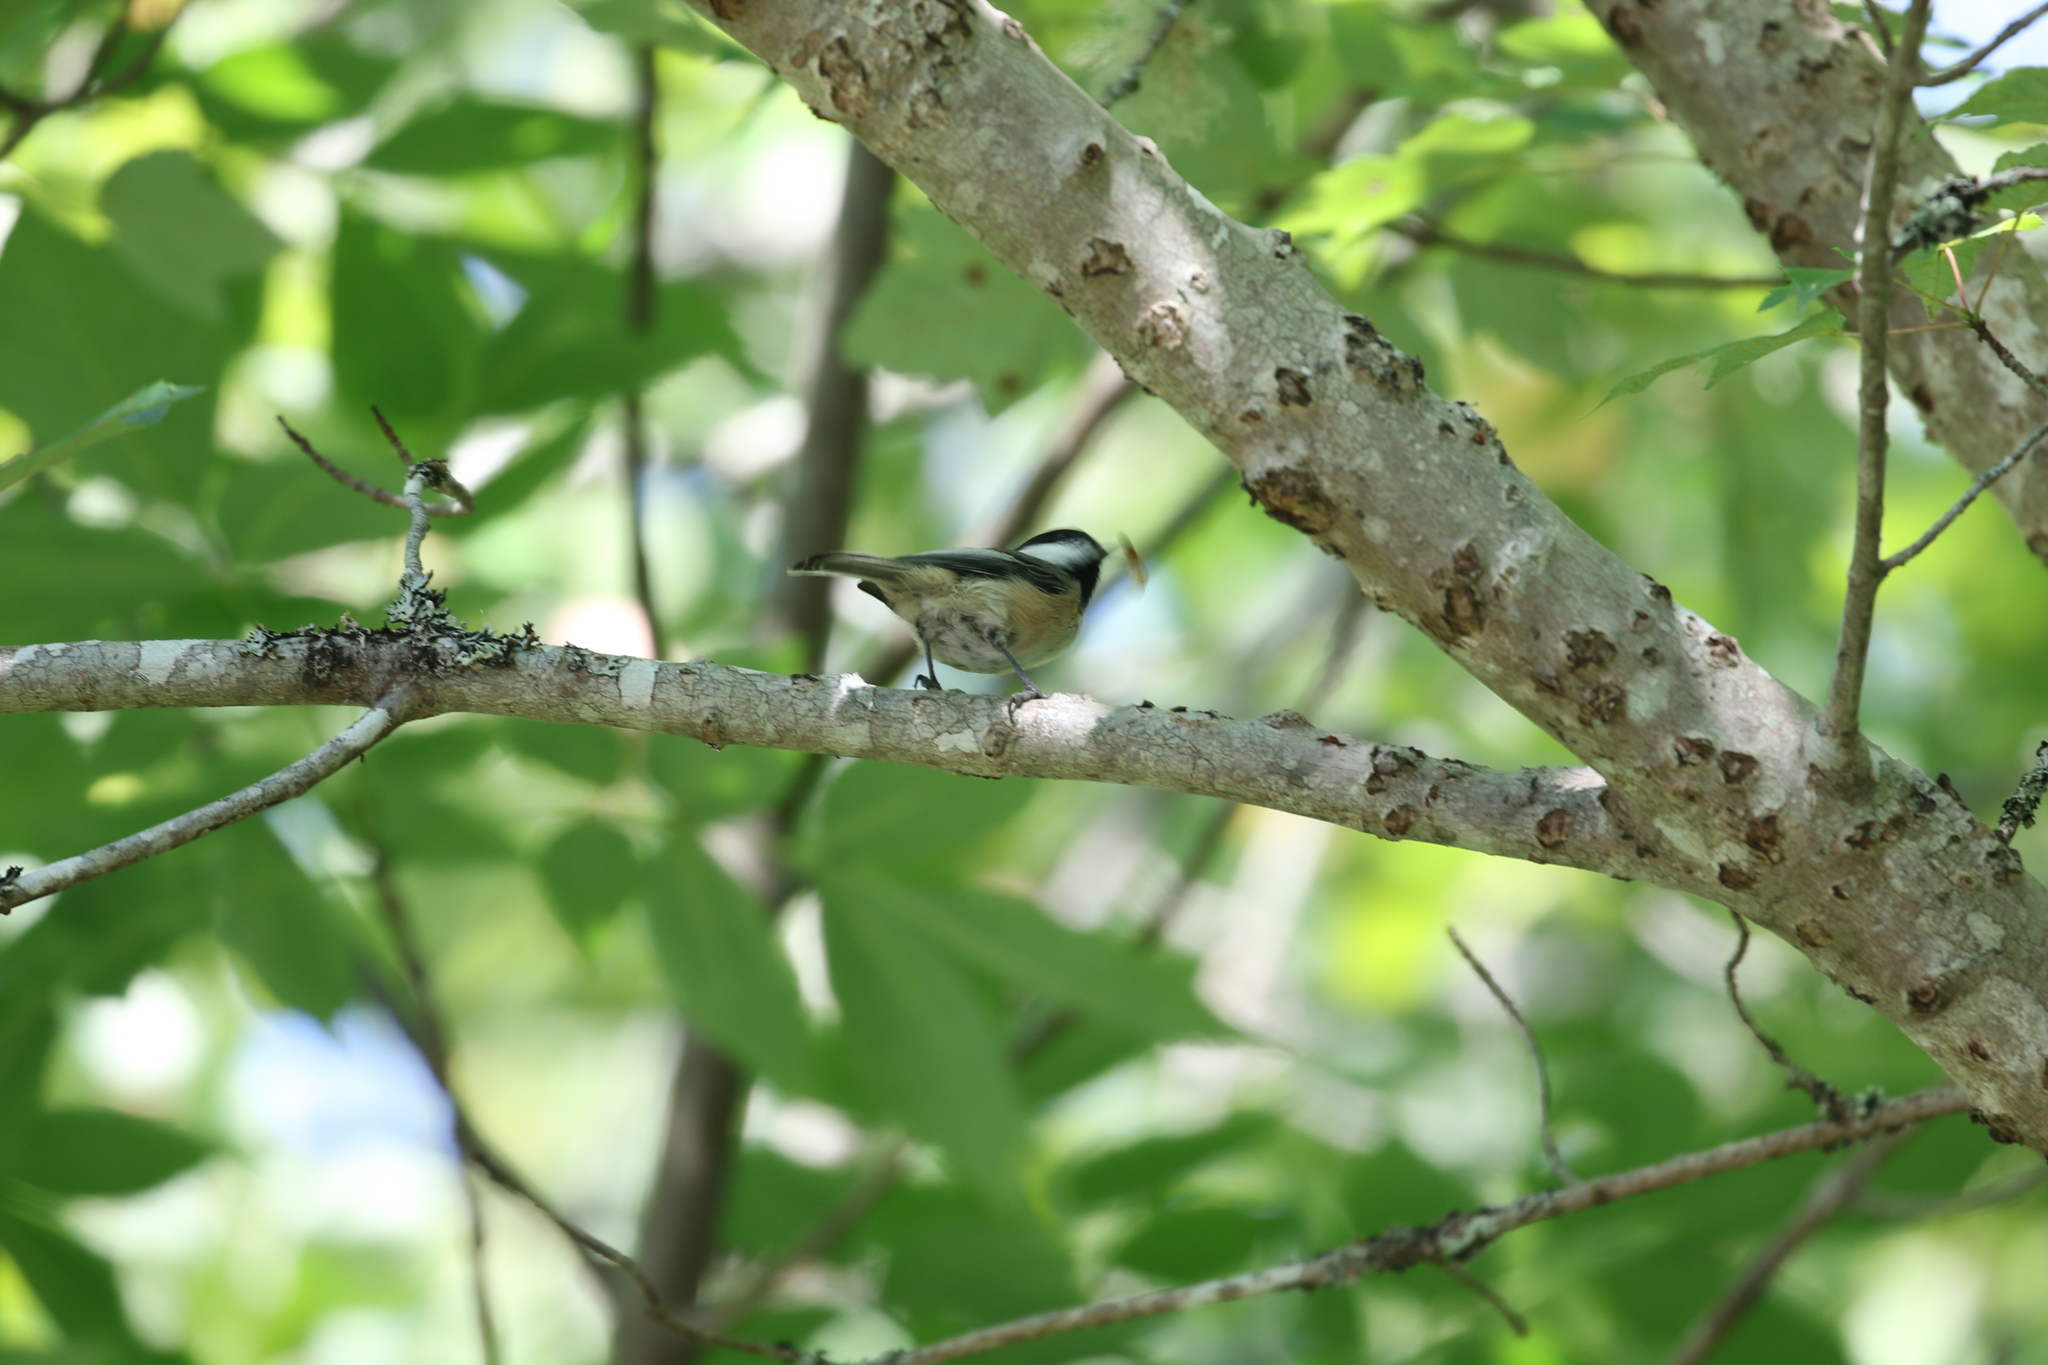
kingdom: Animalia
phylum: Chordata
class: Aves
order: Passeriformes
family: Paridae
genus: Poecile
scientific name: Poecile atricapillus
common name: Black-capped chickadee
